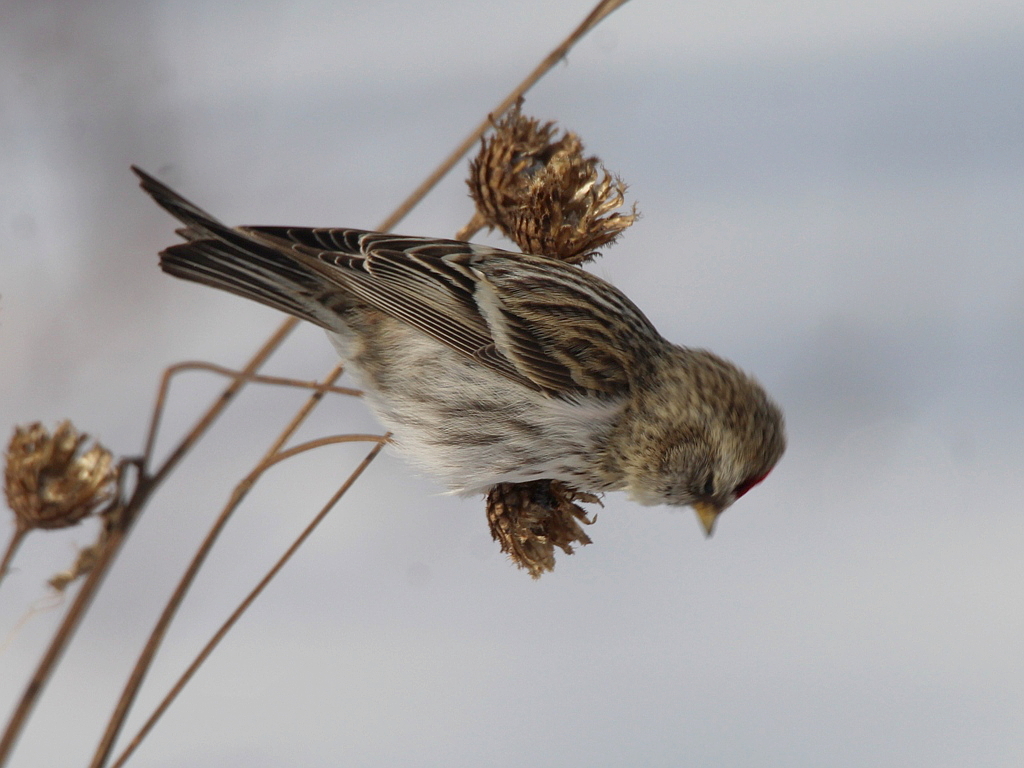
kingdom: Animalia
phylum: Chordata
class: Aves
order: Passeriformes
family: Fringillidae
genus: Acanthis
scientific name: Acanthis flammea
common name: Common redpoll
